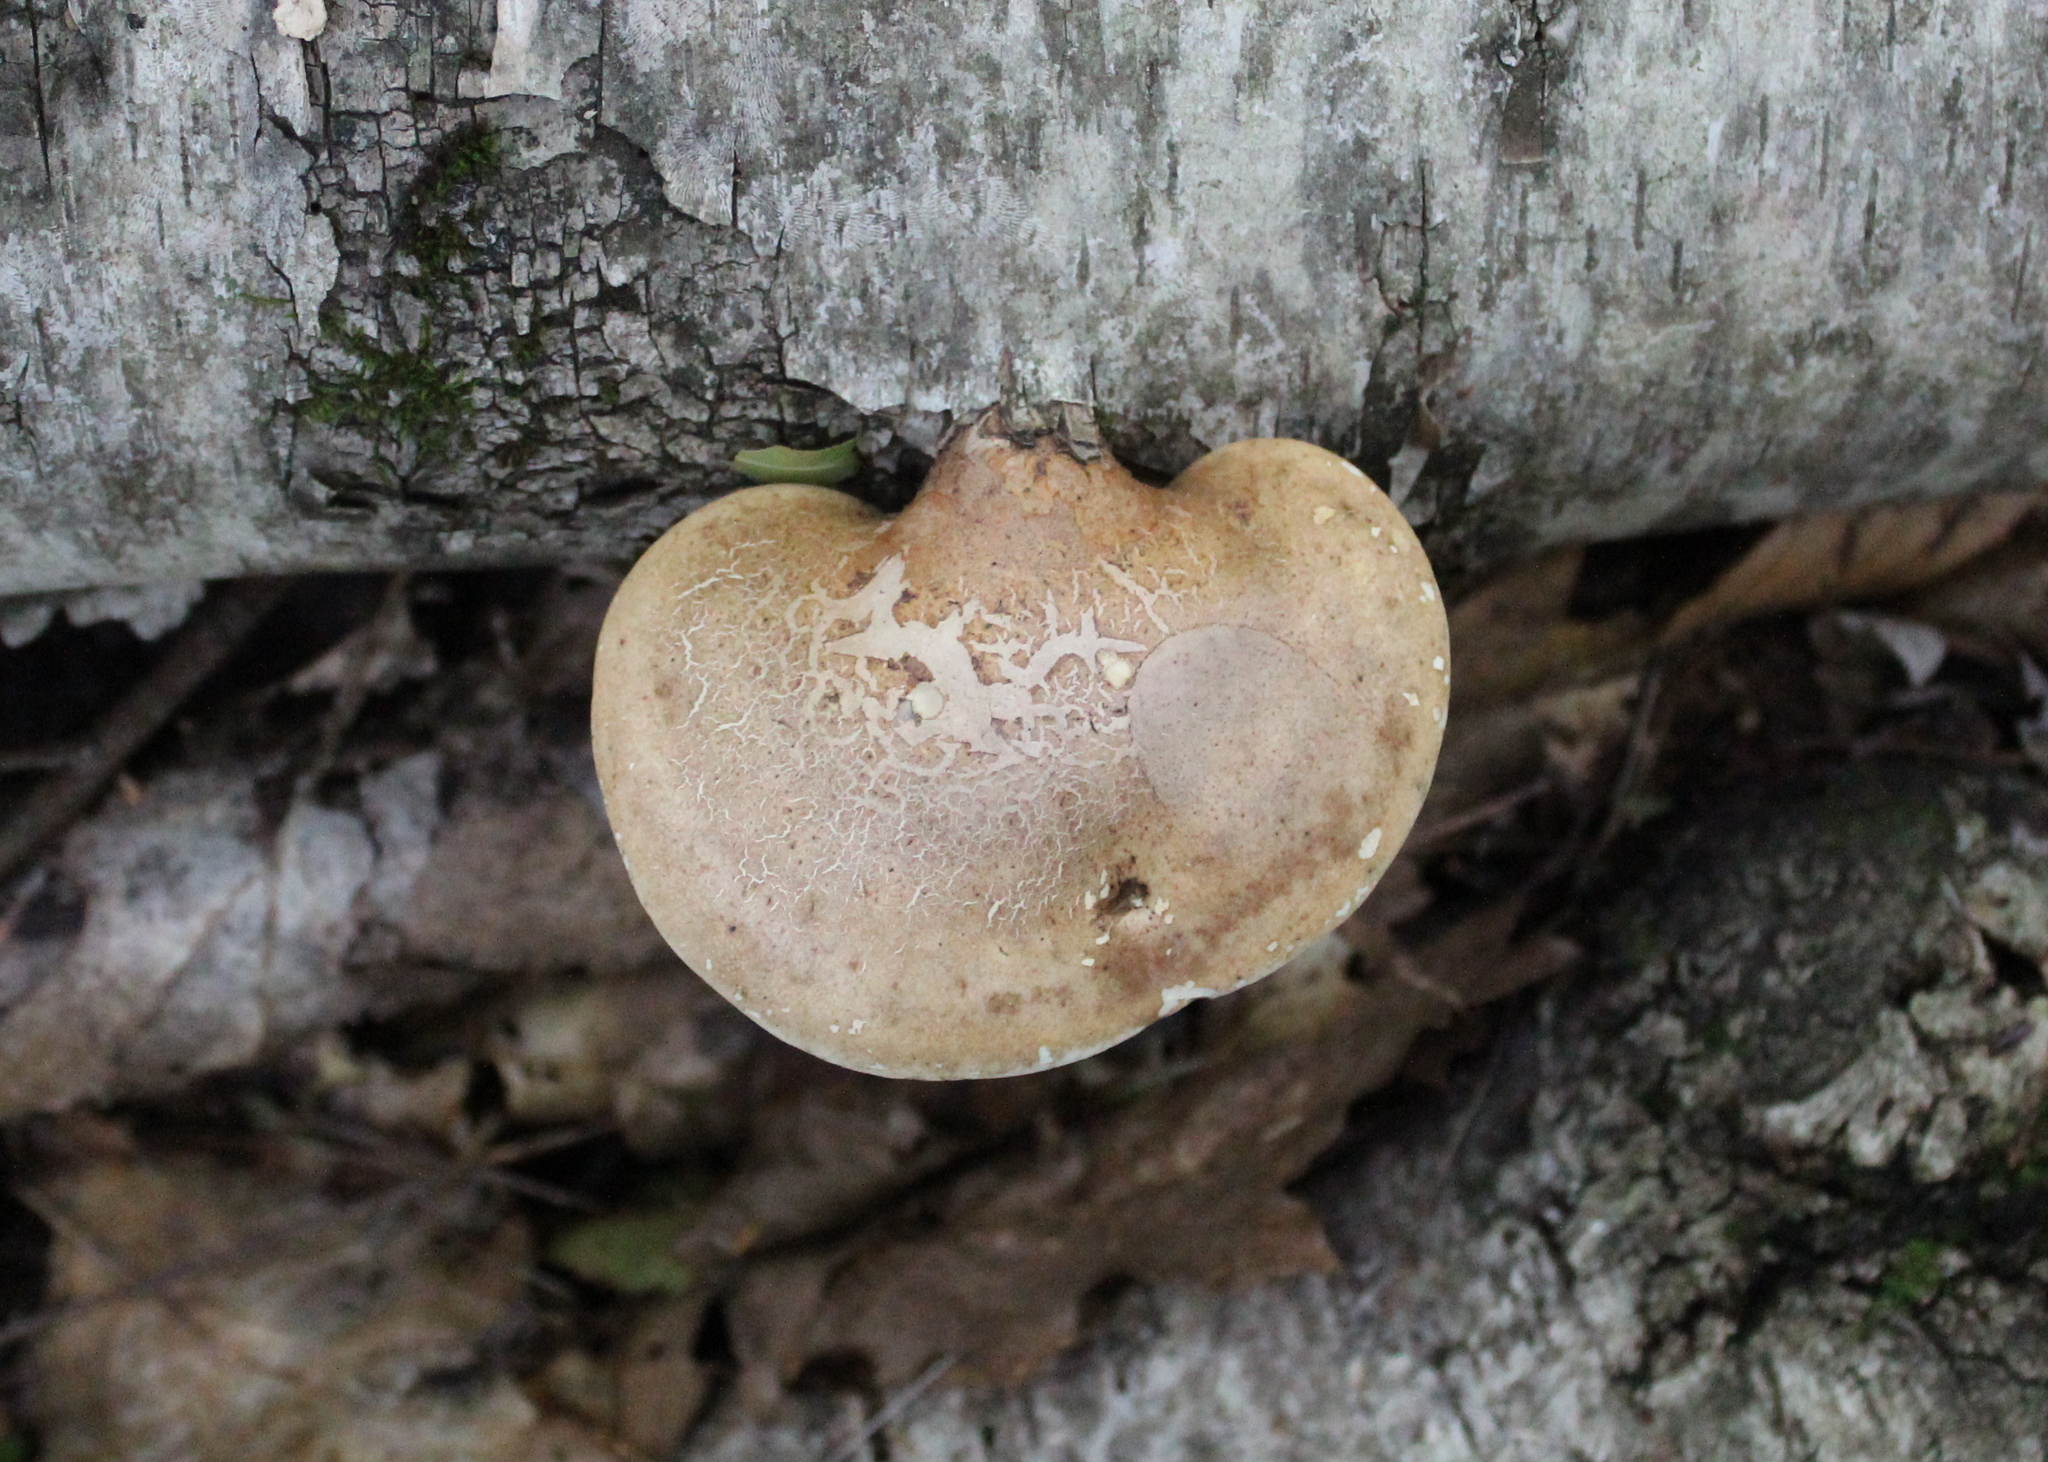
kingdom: Fungi
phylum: Basidiomycota
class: Agaricomycetes
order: Polyporales
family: Fomitopsidaceae
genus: Fomitopsis
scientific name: Fomitopsis betulina
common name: Birch polypore
